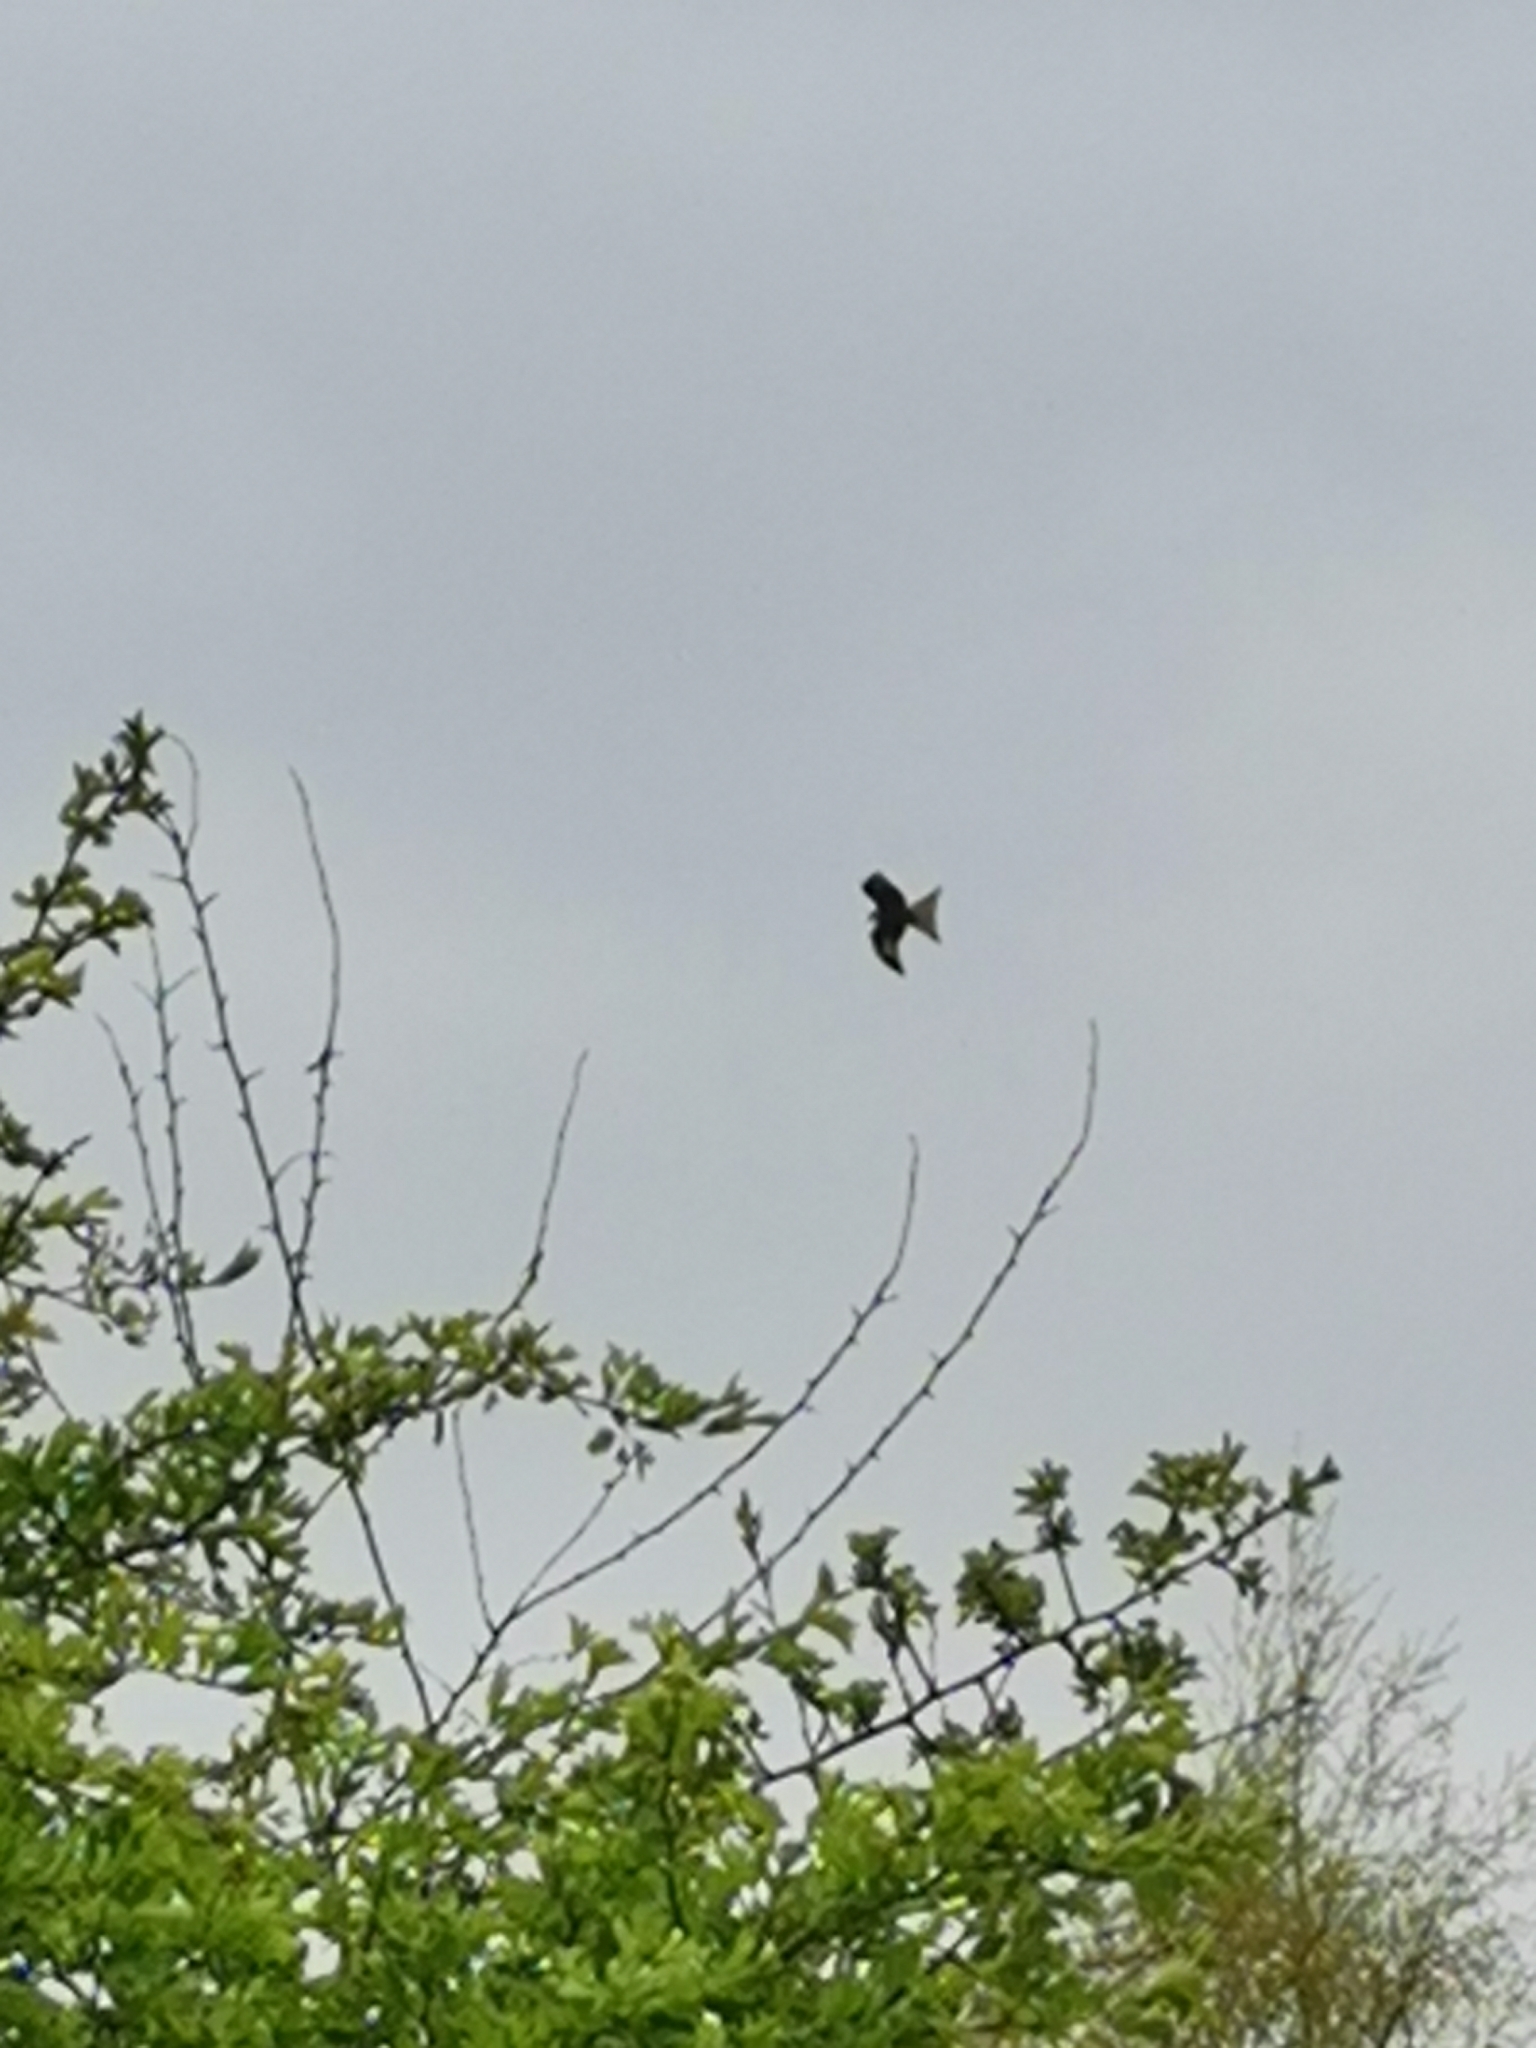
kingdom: Animalia
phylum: Chordata
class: Aves
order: Accipitriformes
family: Accipitridae
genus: Milvus
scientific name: Milvus milvus
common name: Red kite
